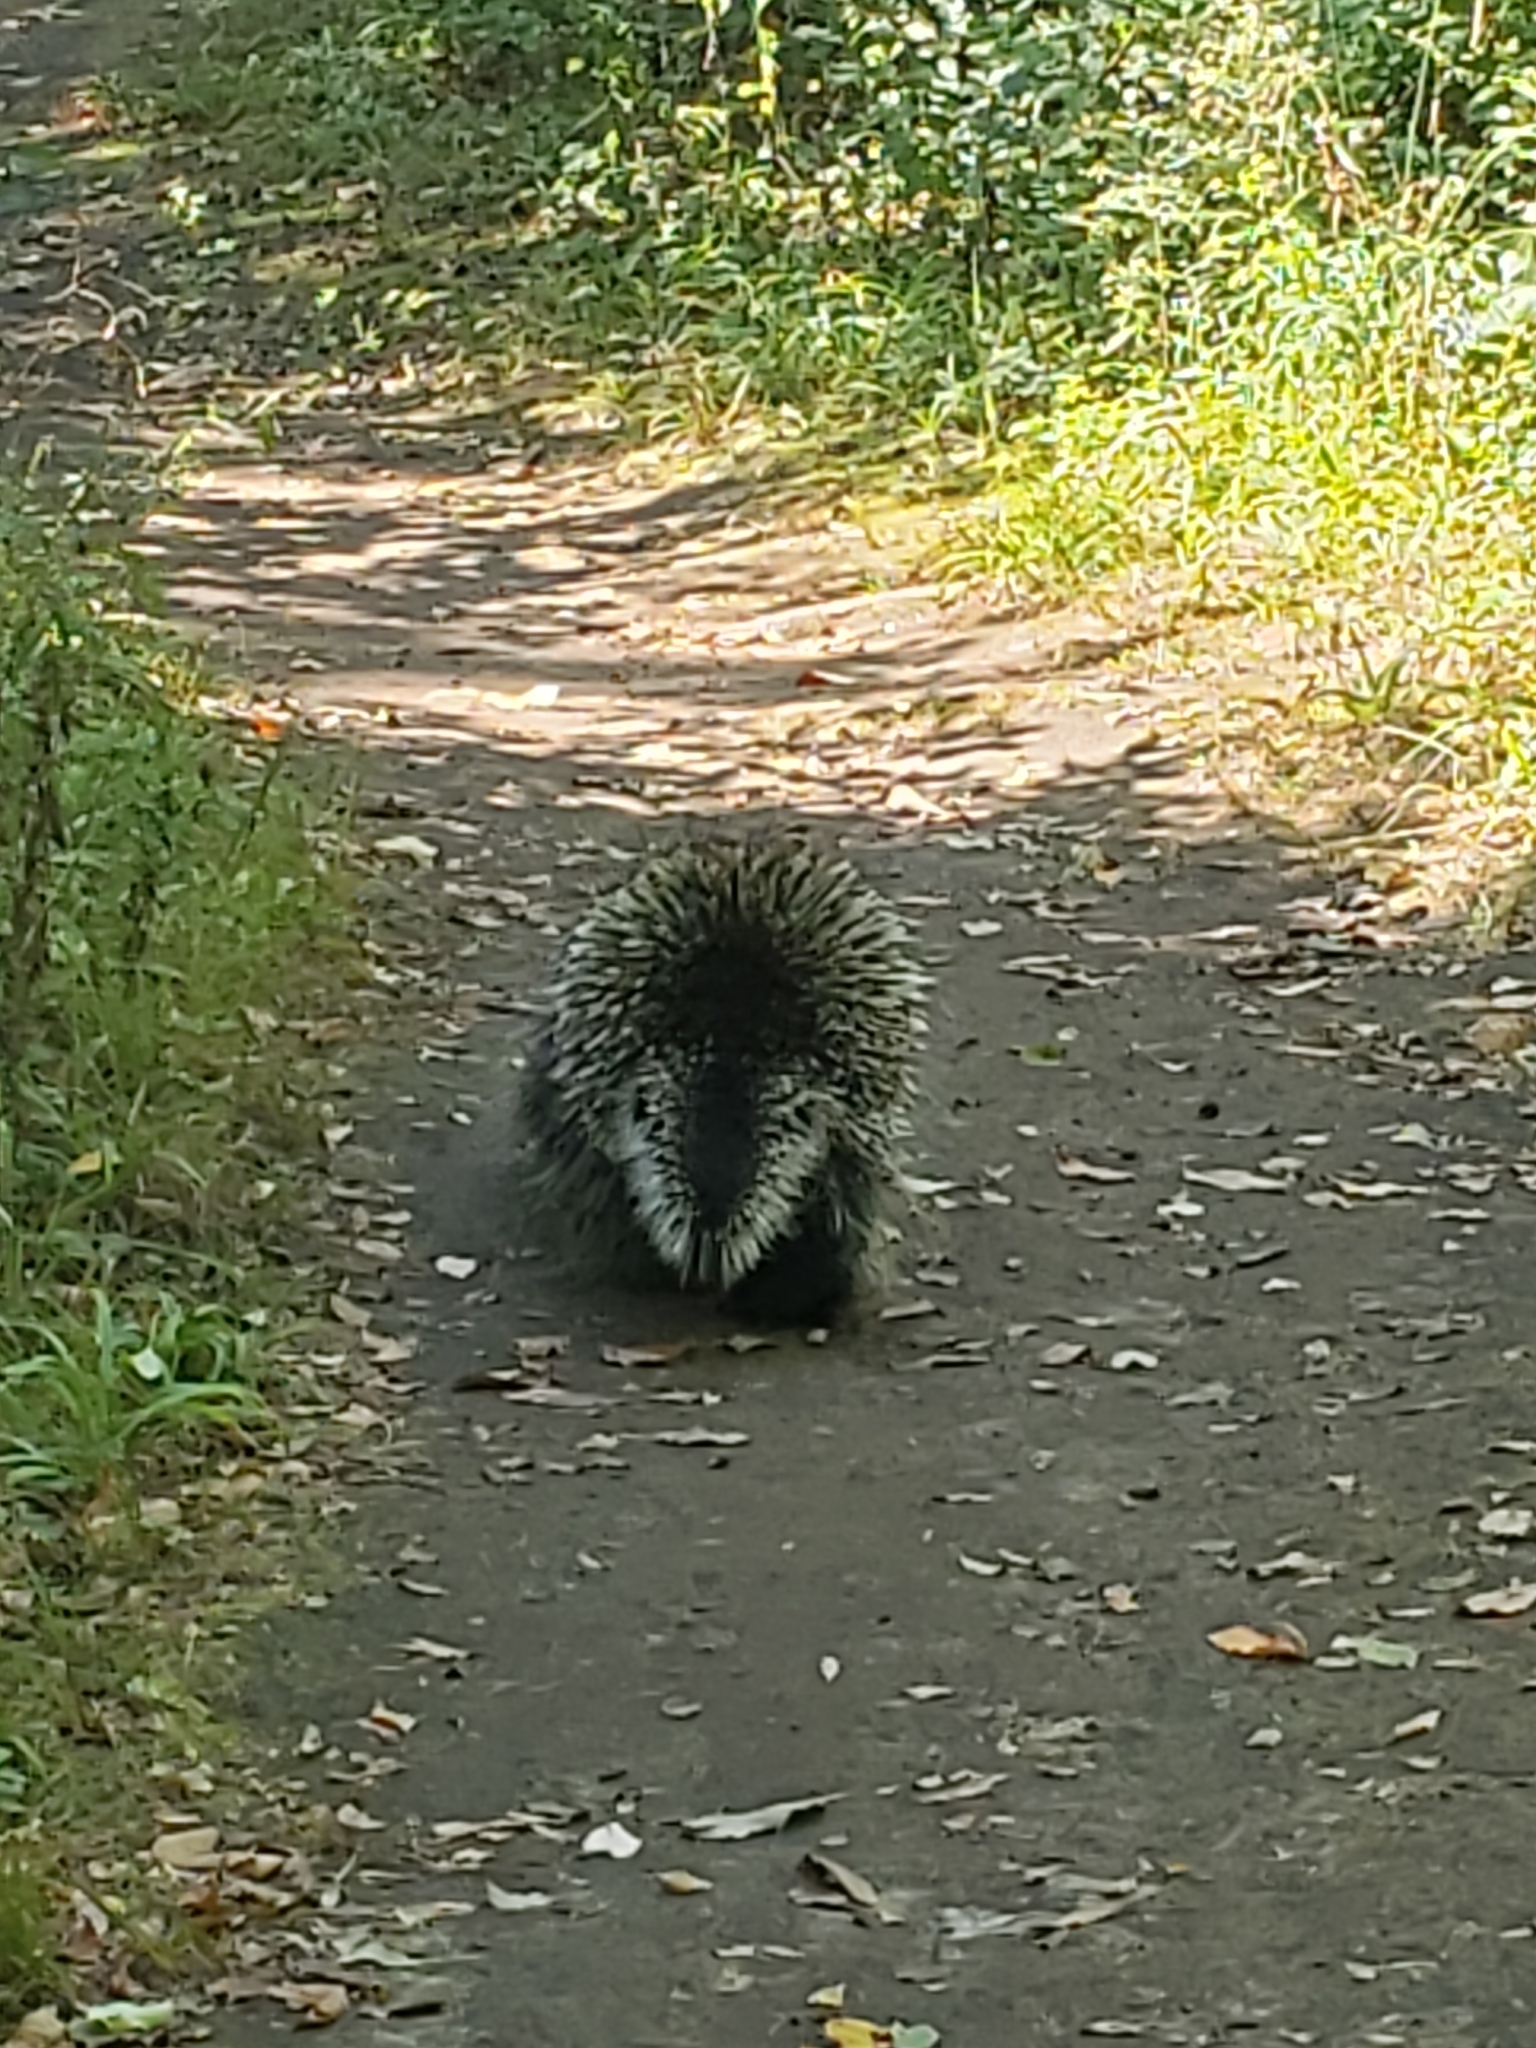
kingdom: Animalia
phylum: Chordata
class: Mammalia
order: Rodentia
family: Erethizontidae
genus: Erethizon
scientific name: Erethizon dorsatus
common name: North american porcupine
